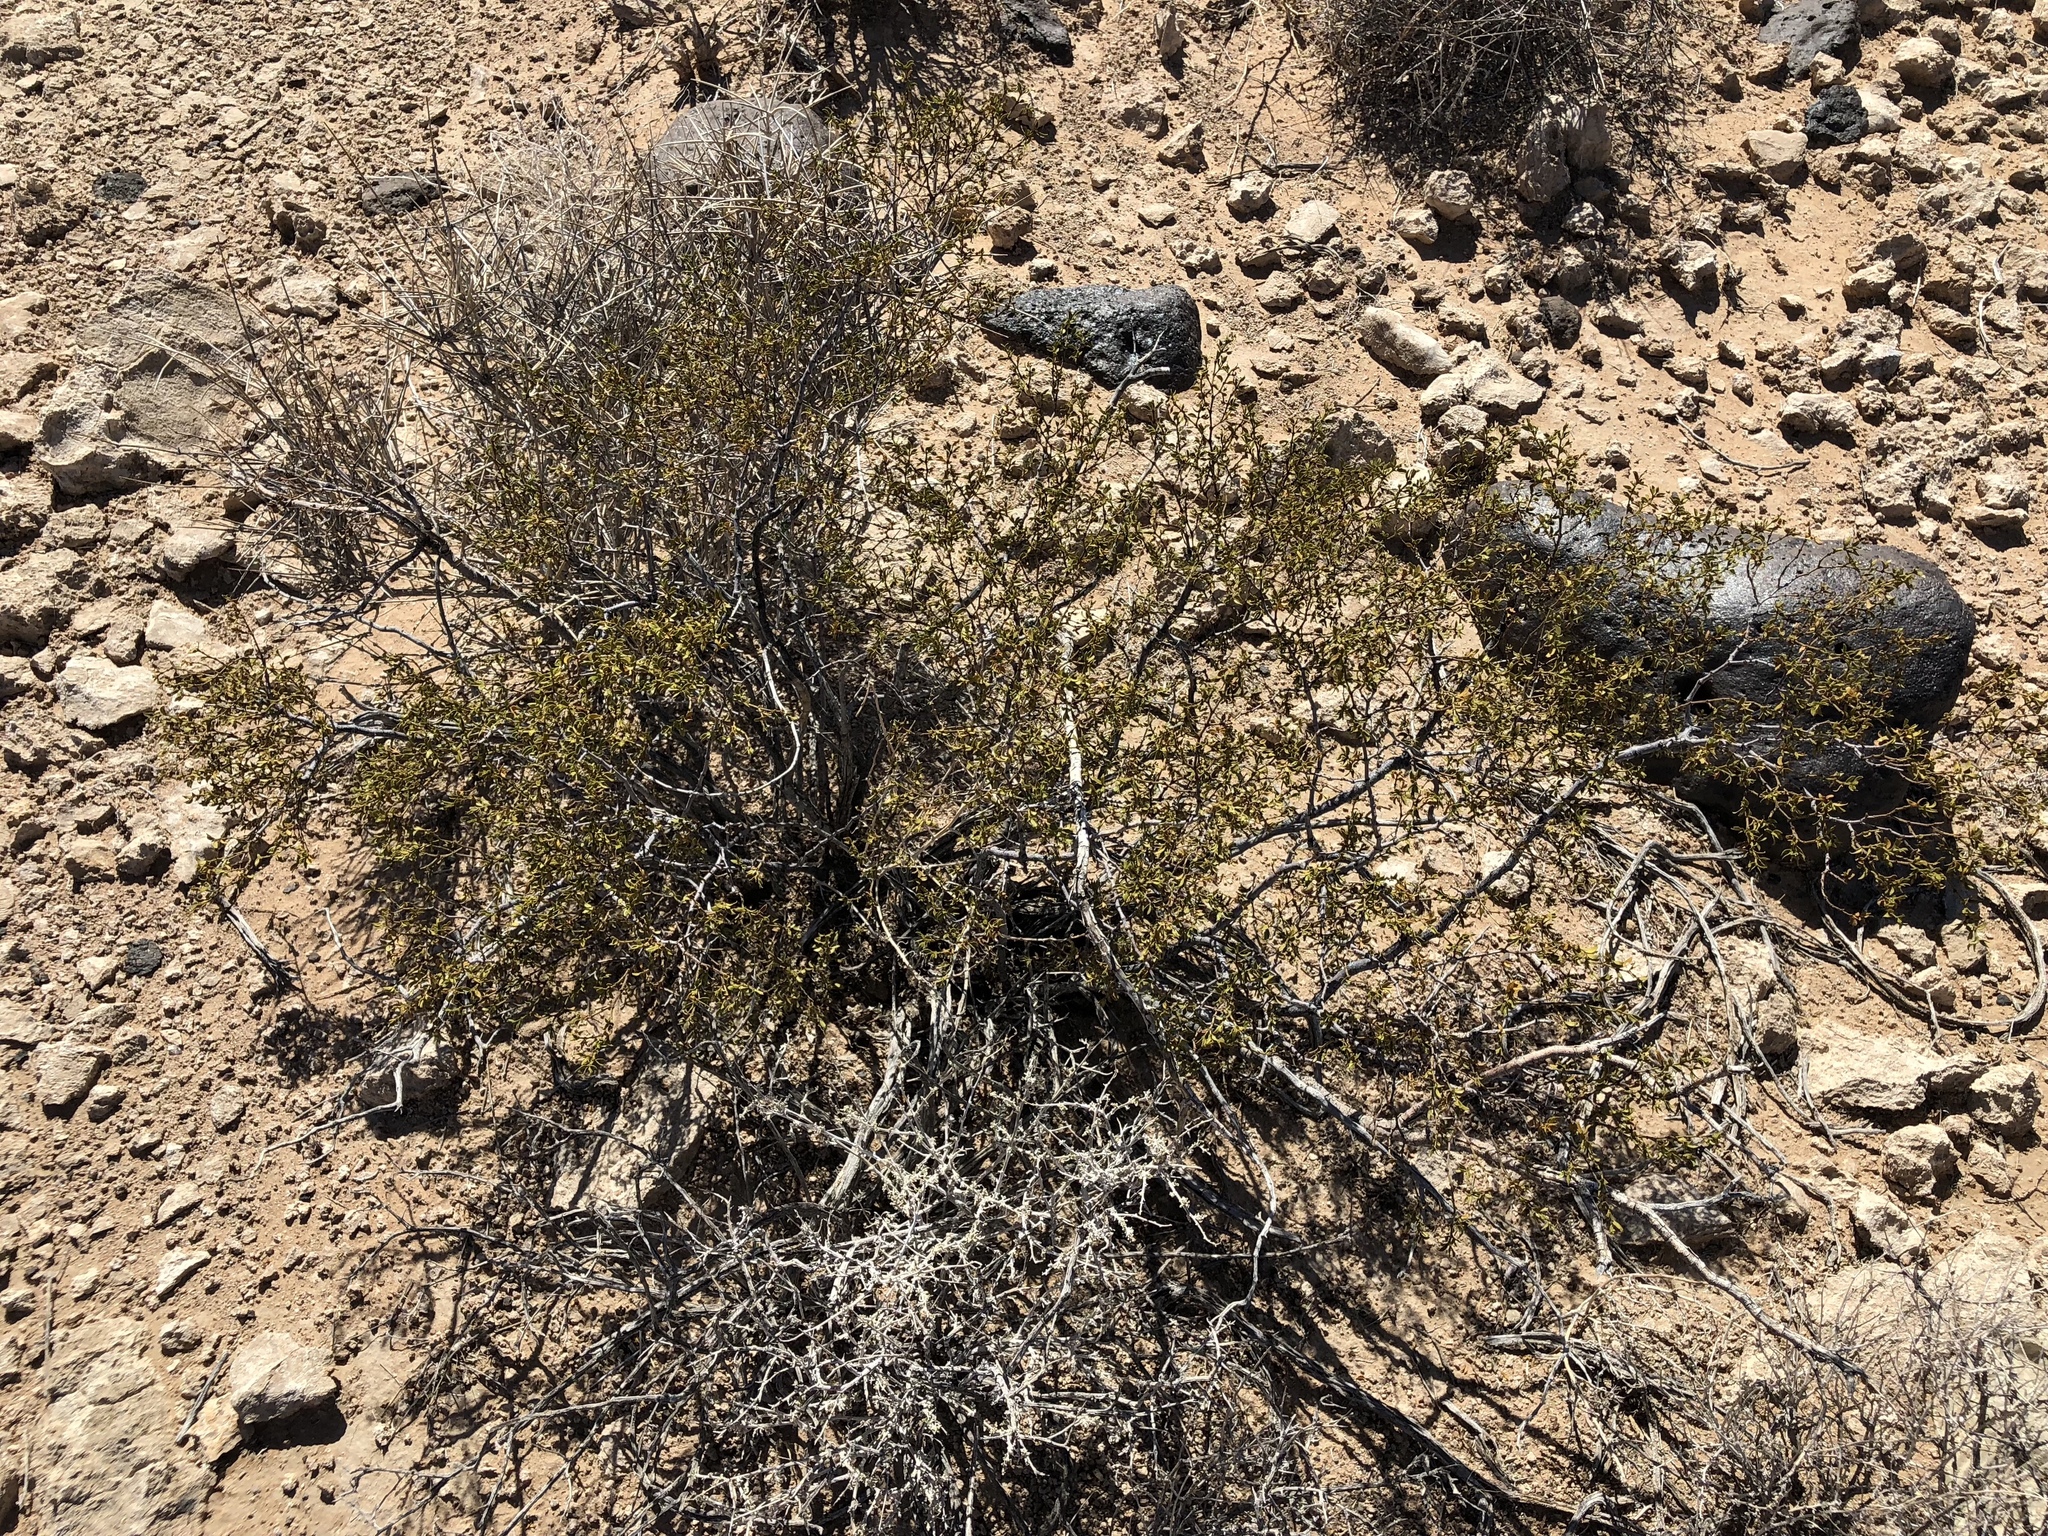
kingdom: Plantae
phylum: Tracheophyta
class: Magnoliopsida
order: Zygophyllales
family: Zygophyllaceae
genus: Larrea
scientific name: Larrea tridentata
